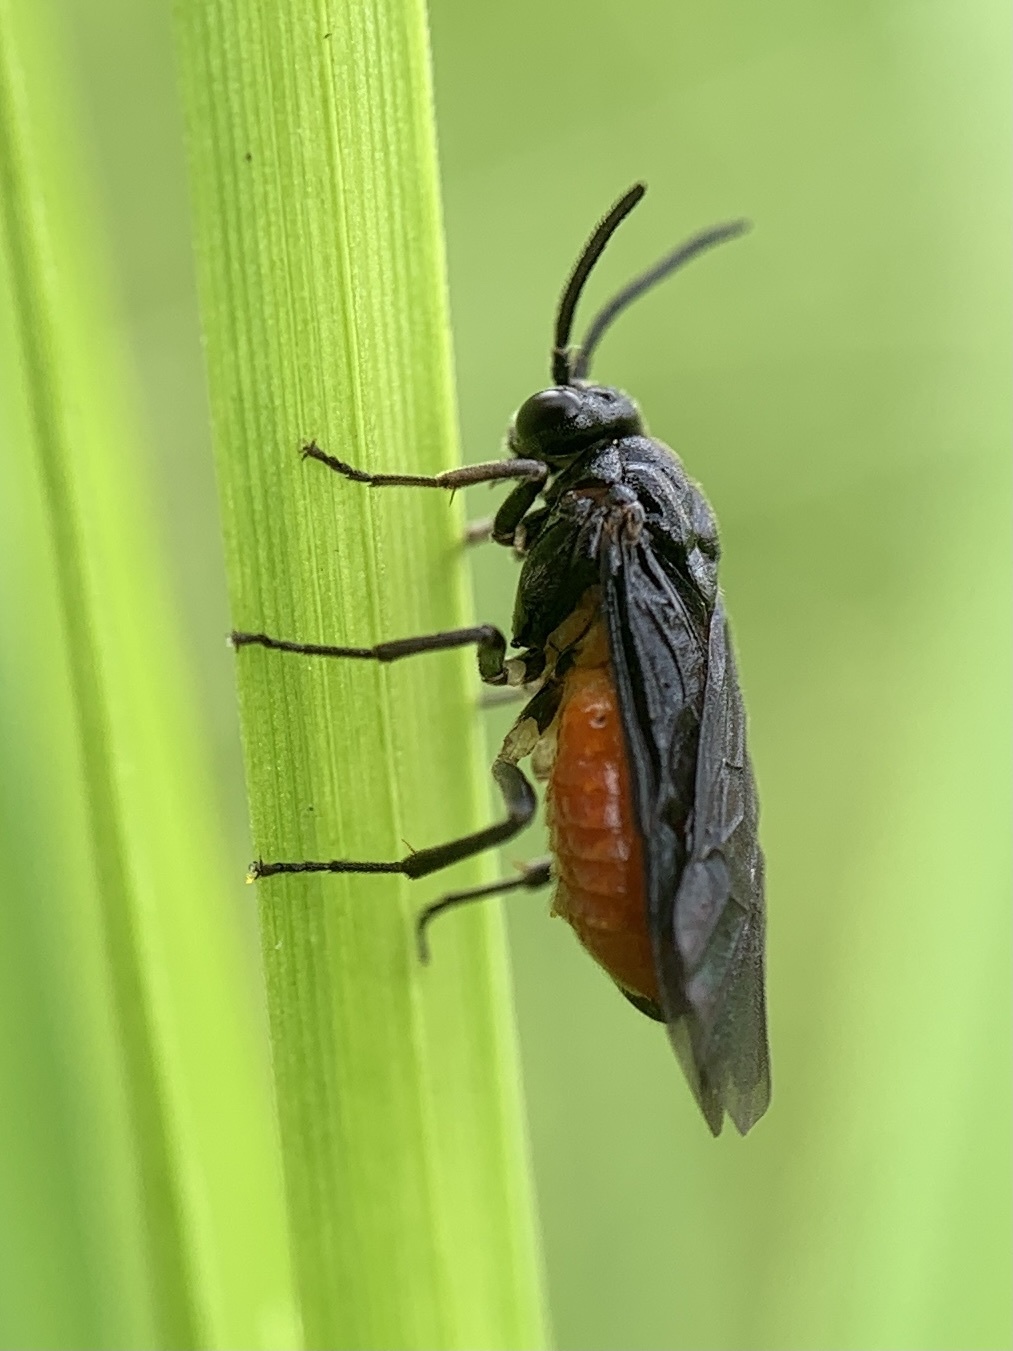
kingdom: Animalia
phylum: Arthropoda
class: Insecta
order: Hymenoptera
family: Argidae
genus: Sphacophilus
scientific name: Sphacophilus cellularis
